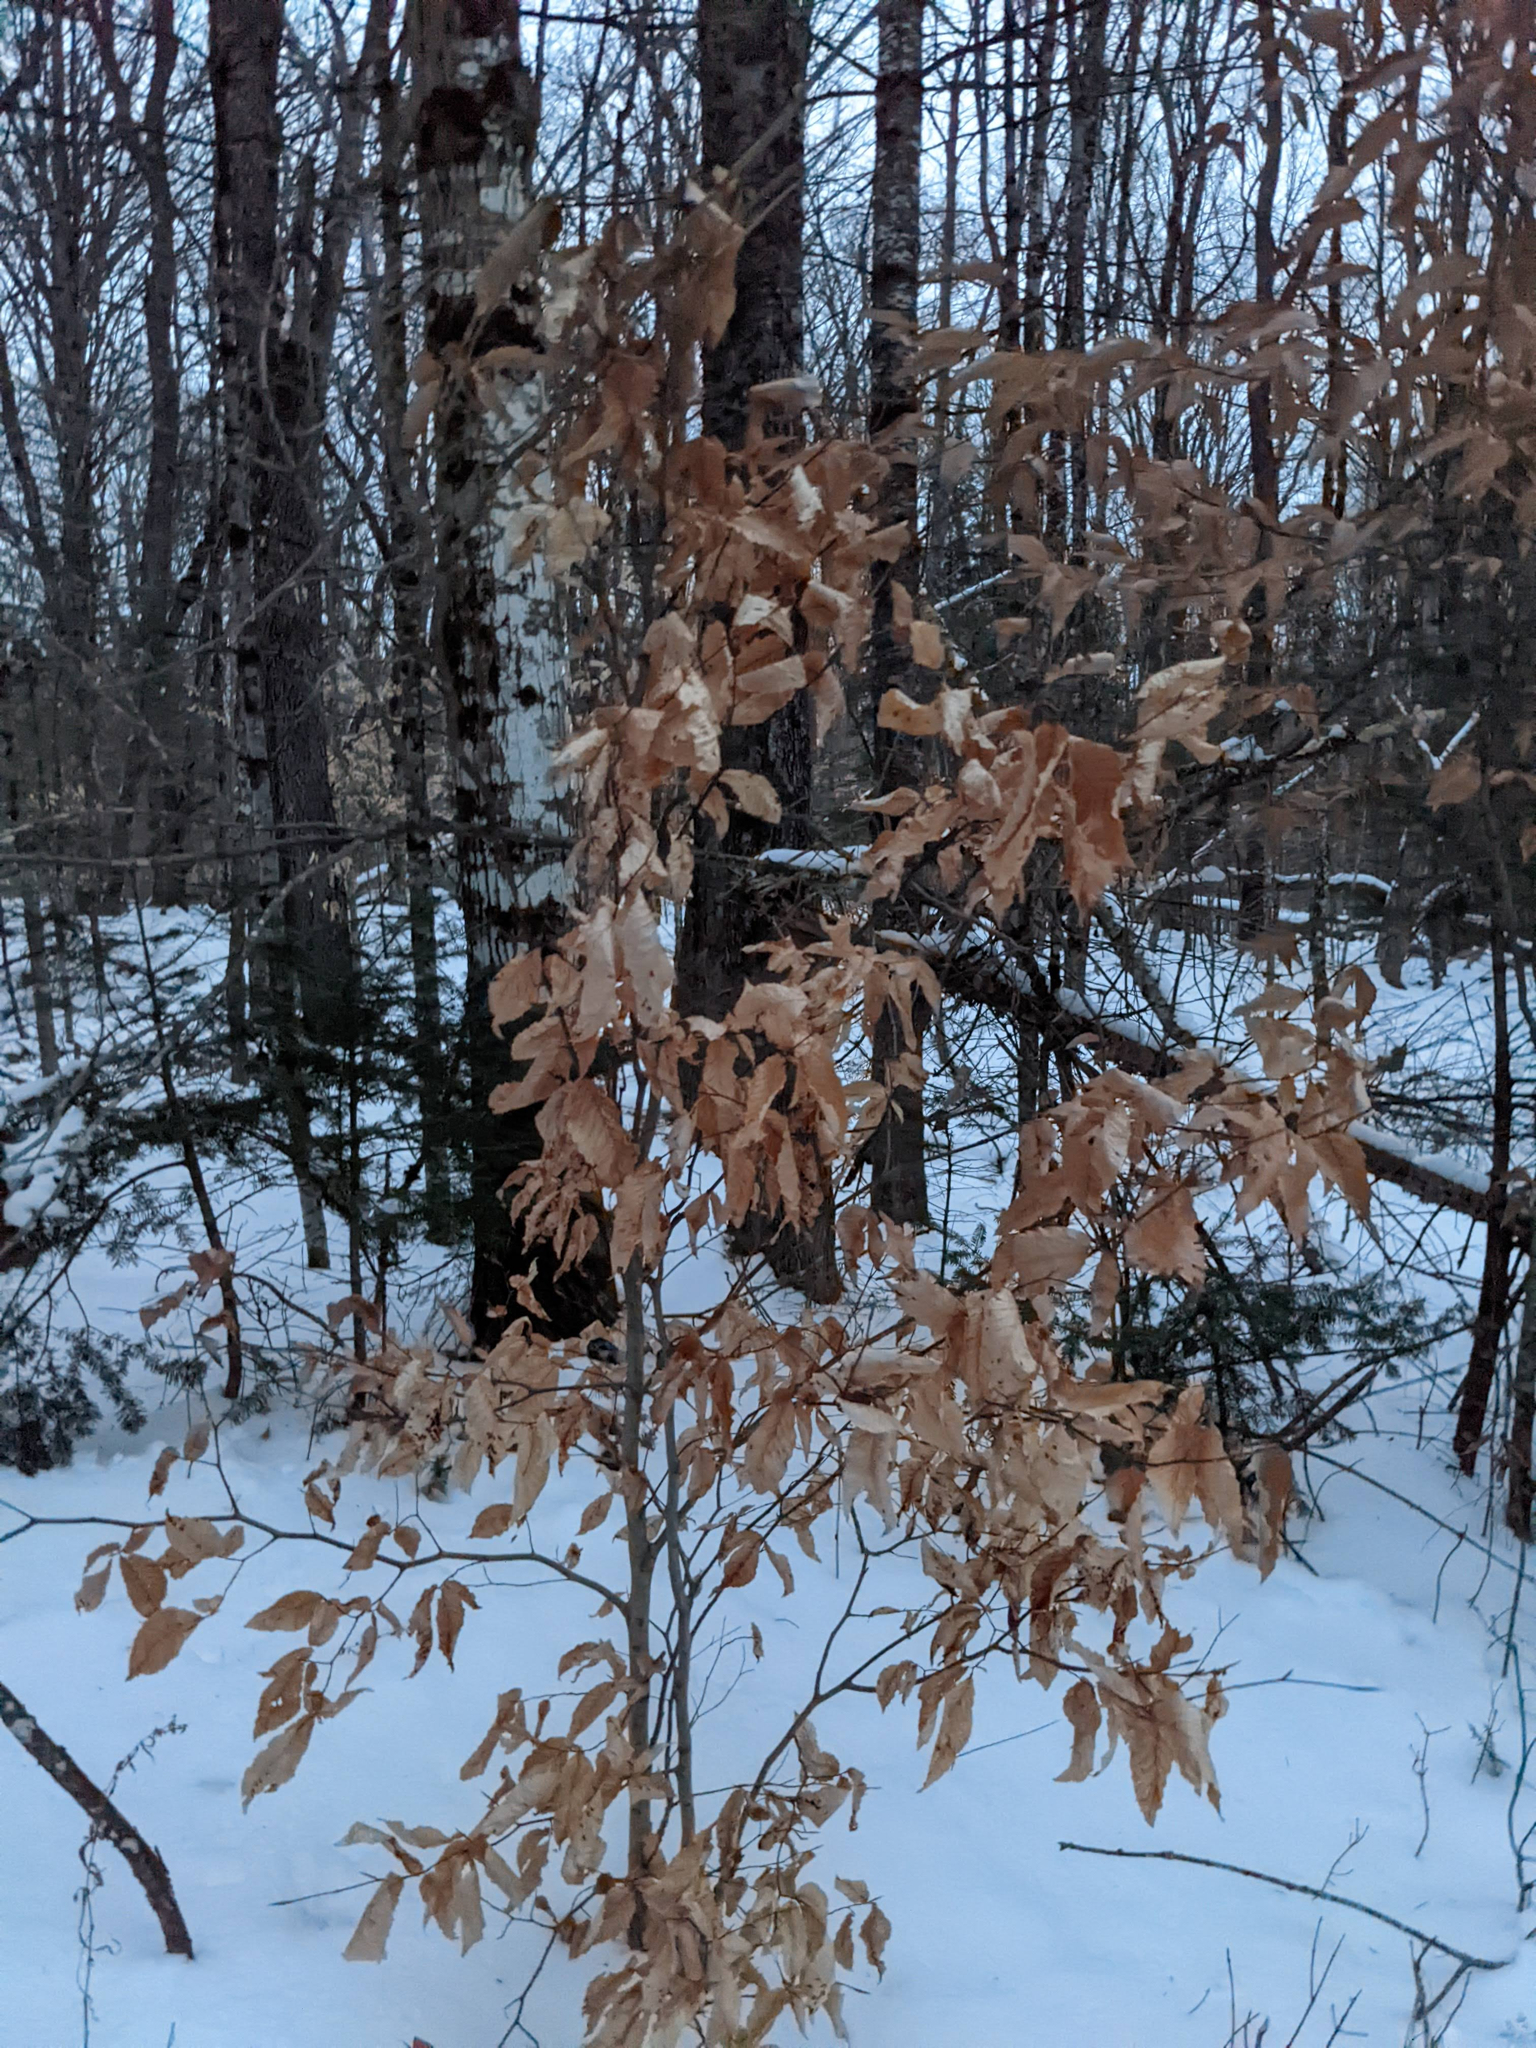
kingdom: Plantae
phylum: Tracheophyta
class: Magnoliopsida
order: Fagales
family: Fagaceae
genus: Fagus
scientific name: Fagus grandifolia
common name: American beech
